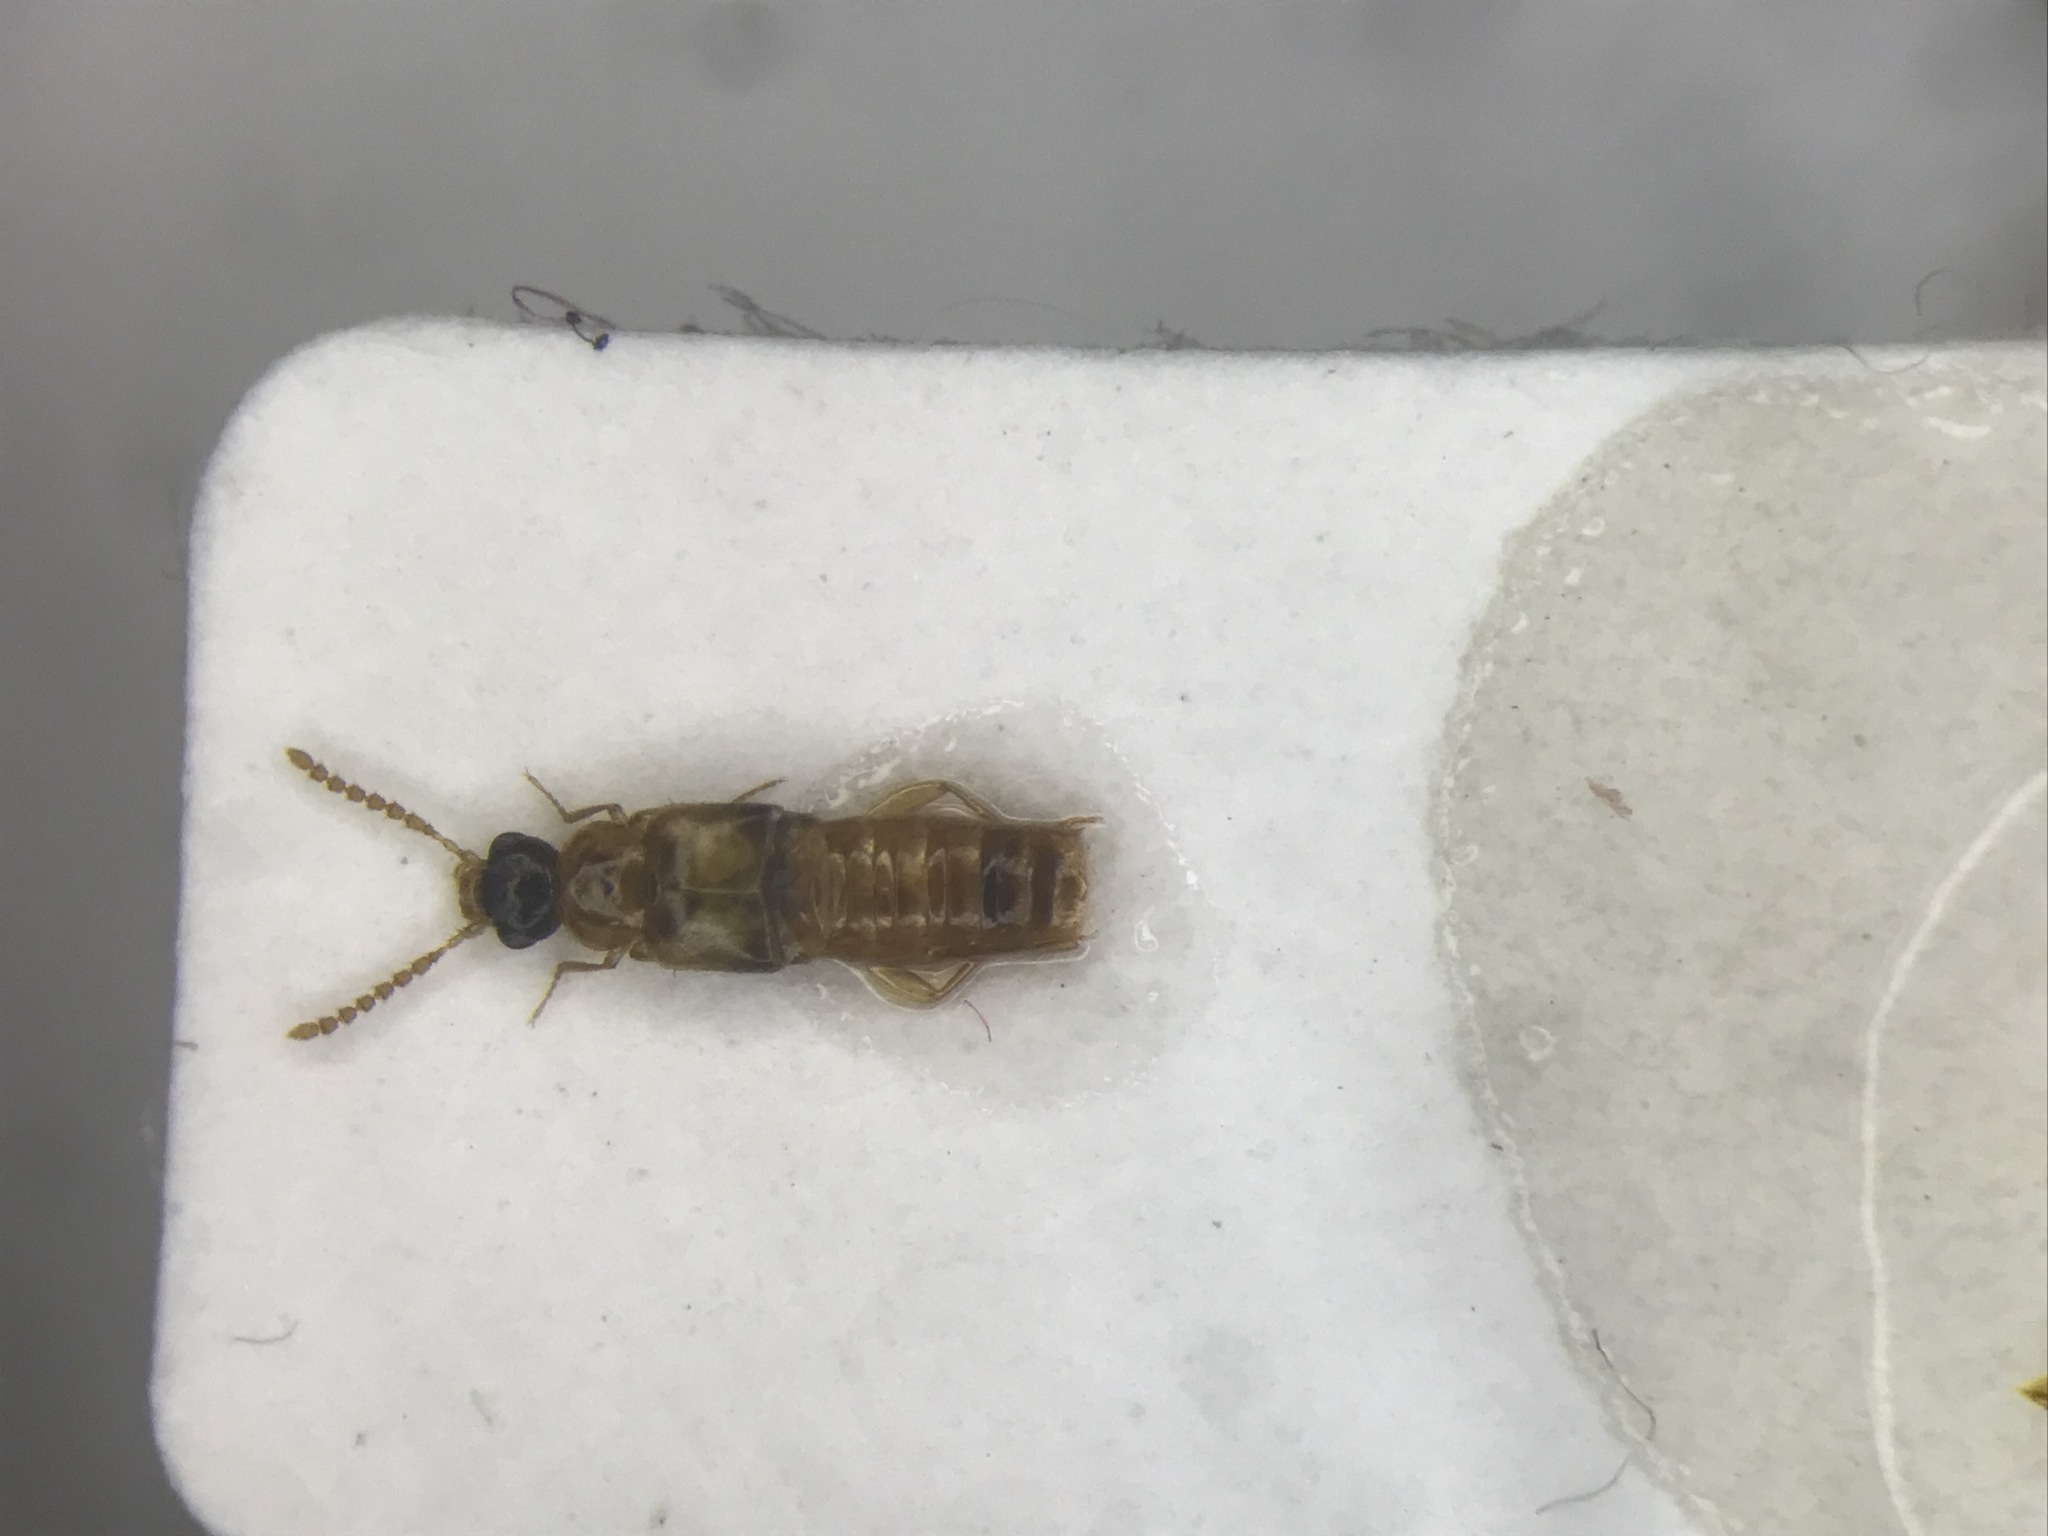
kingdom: Animalia
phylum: Arthropoda
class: Insecta
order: Coleoptera
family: Staphylinidae
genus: Gyrophaena
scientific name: Gyrophaena gilvicollis
